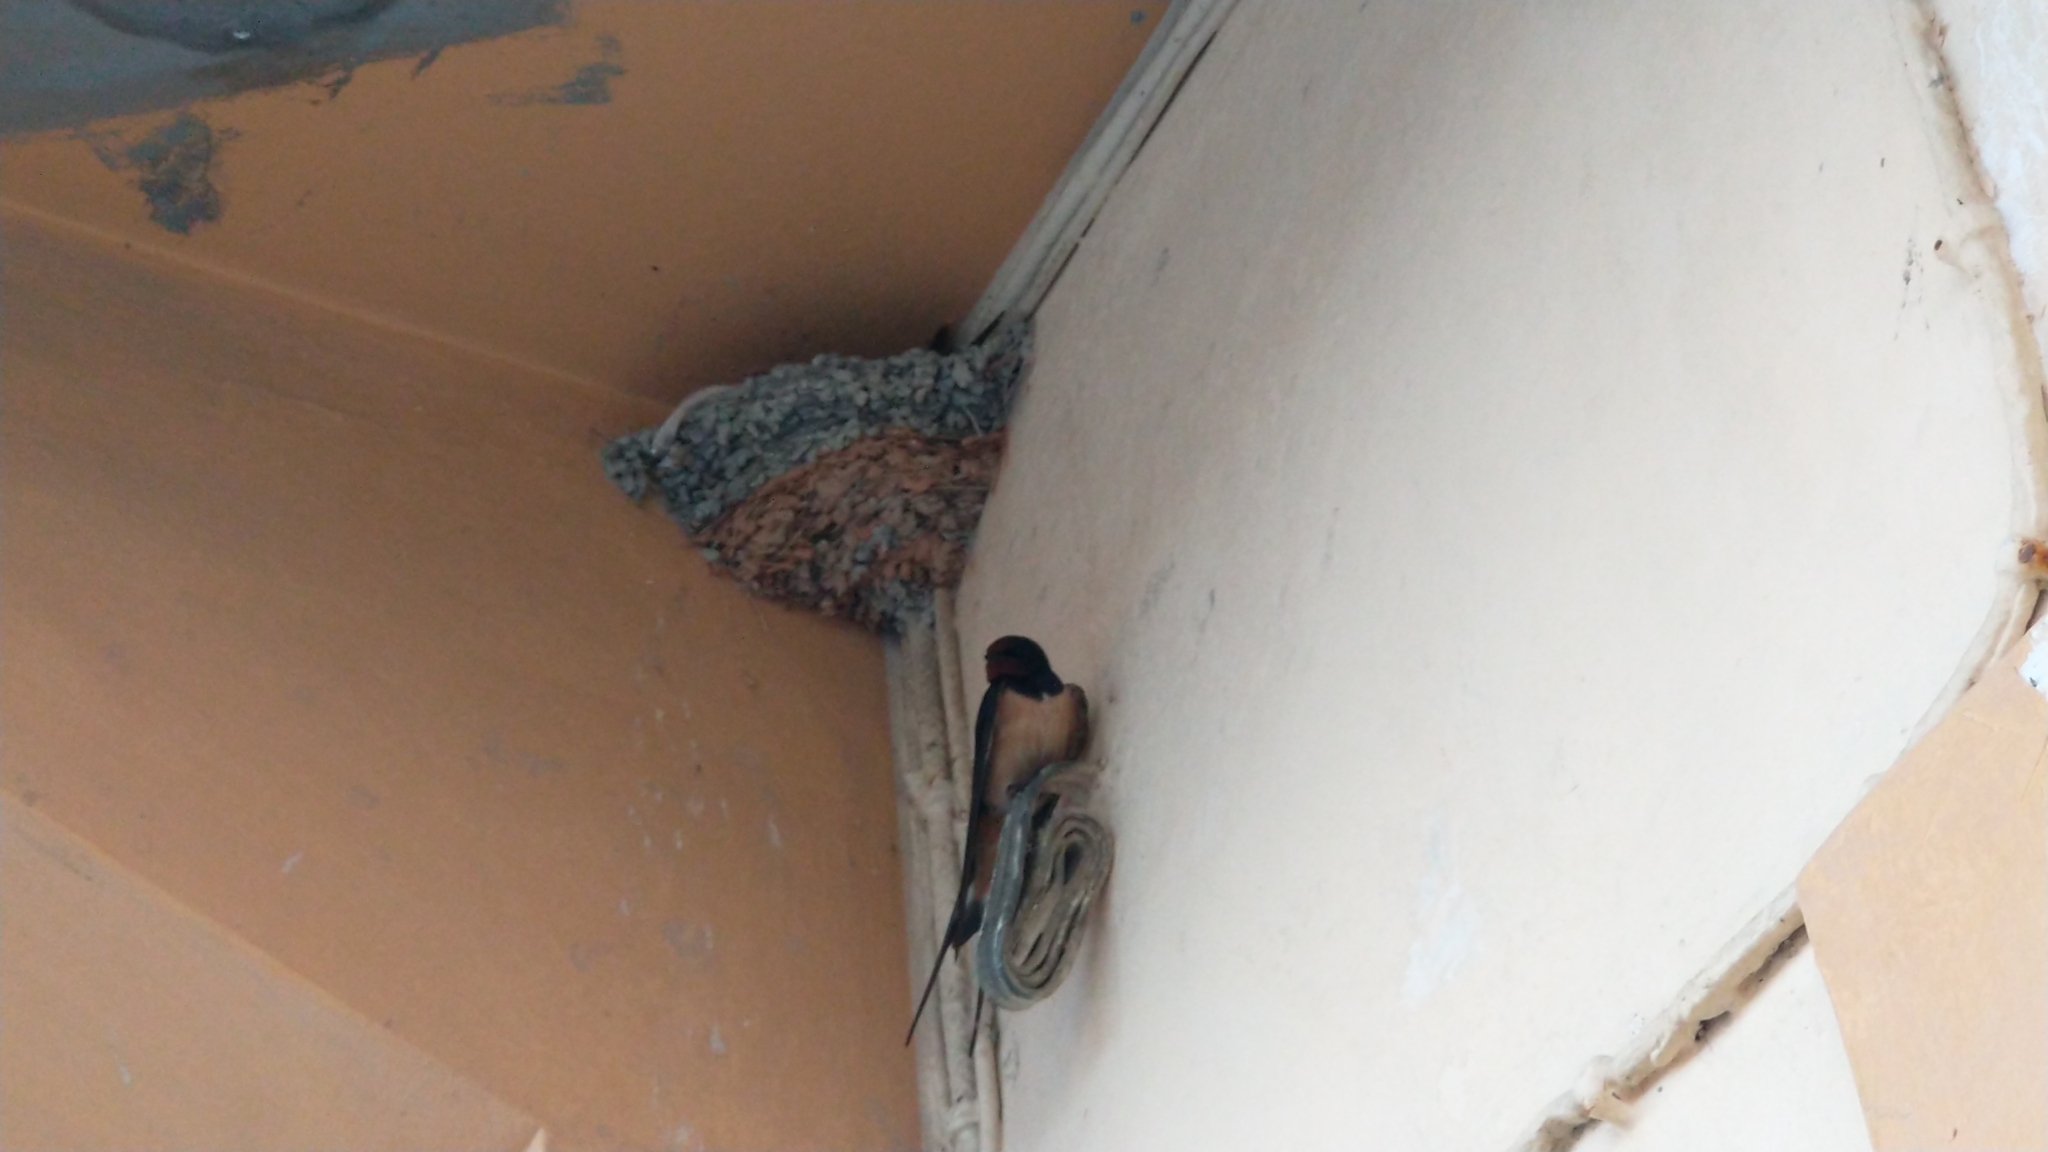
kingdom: Animalia
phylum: Chordata
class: Aves
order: Passeriformes
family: Hirundinidae
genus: Hirundo
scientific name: Hirundo rustica
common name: Barn swallow
